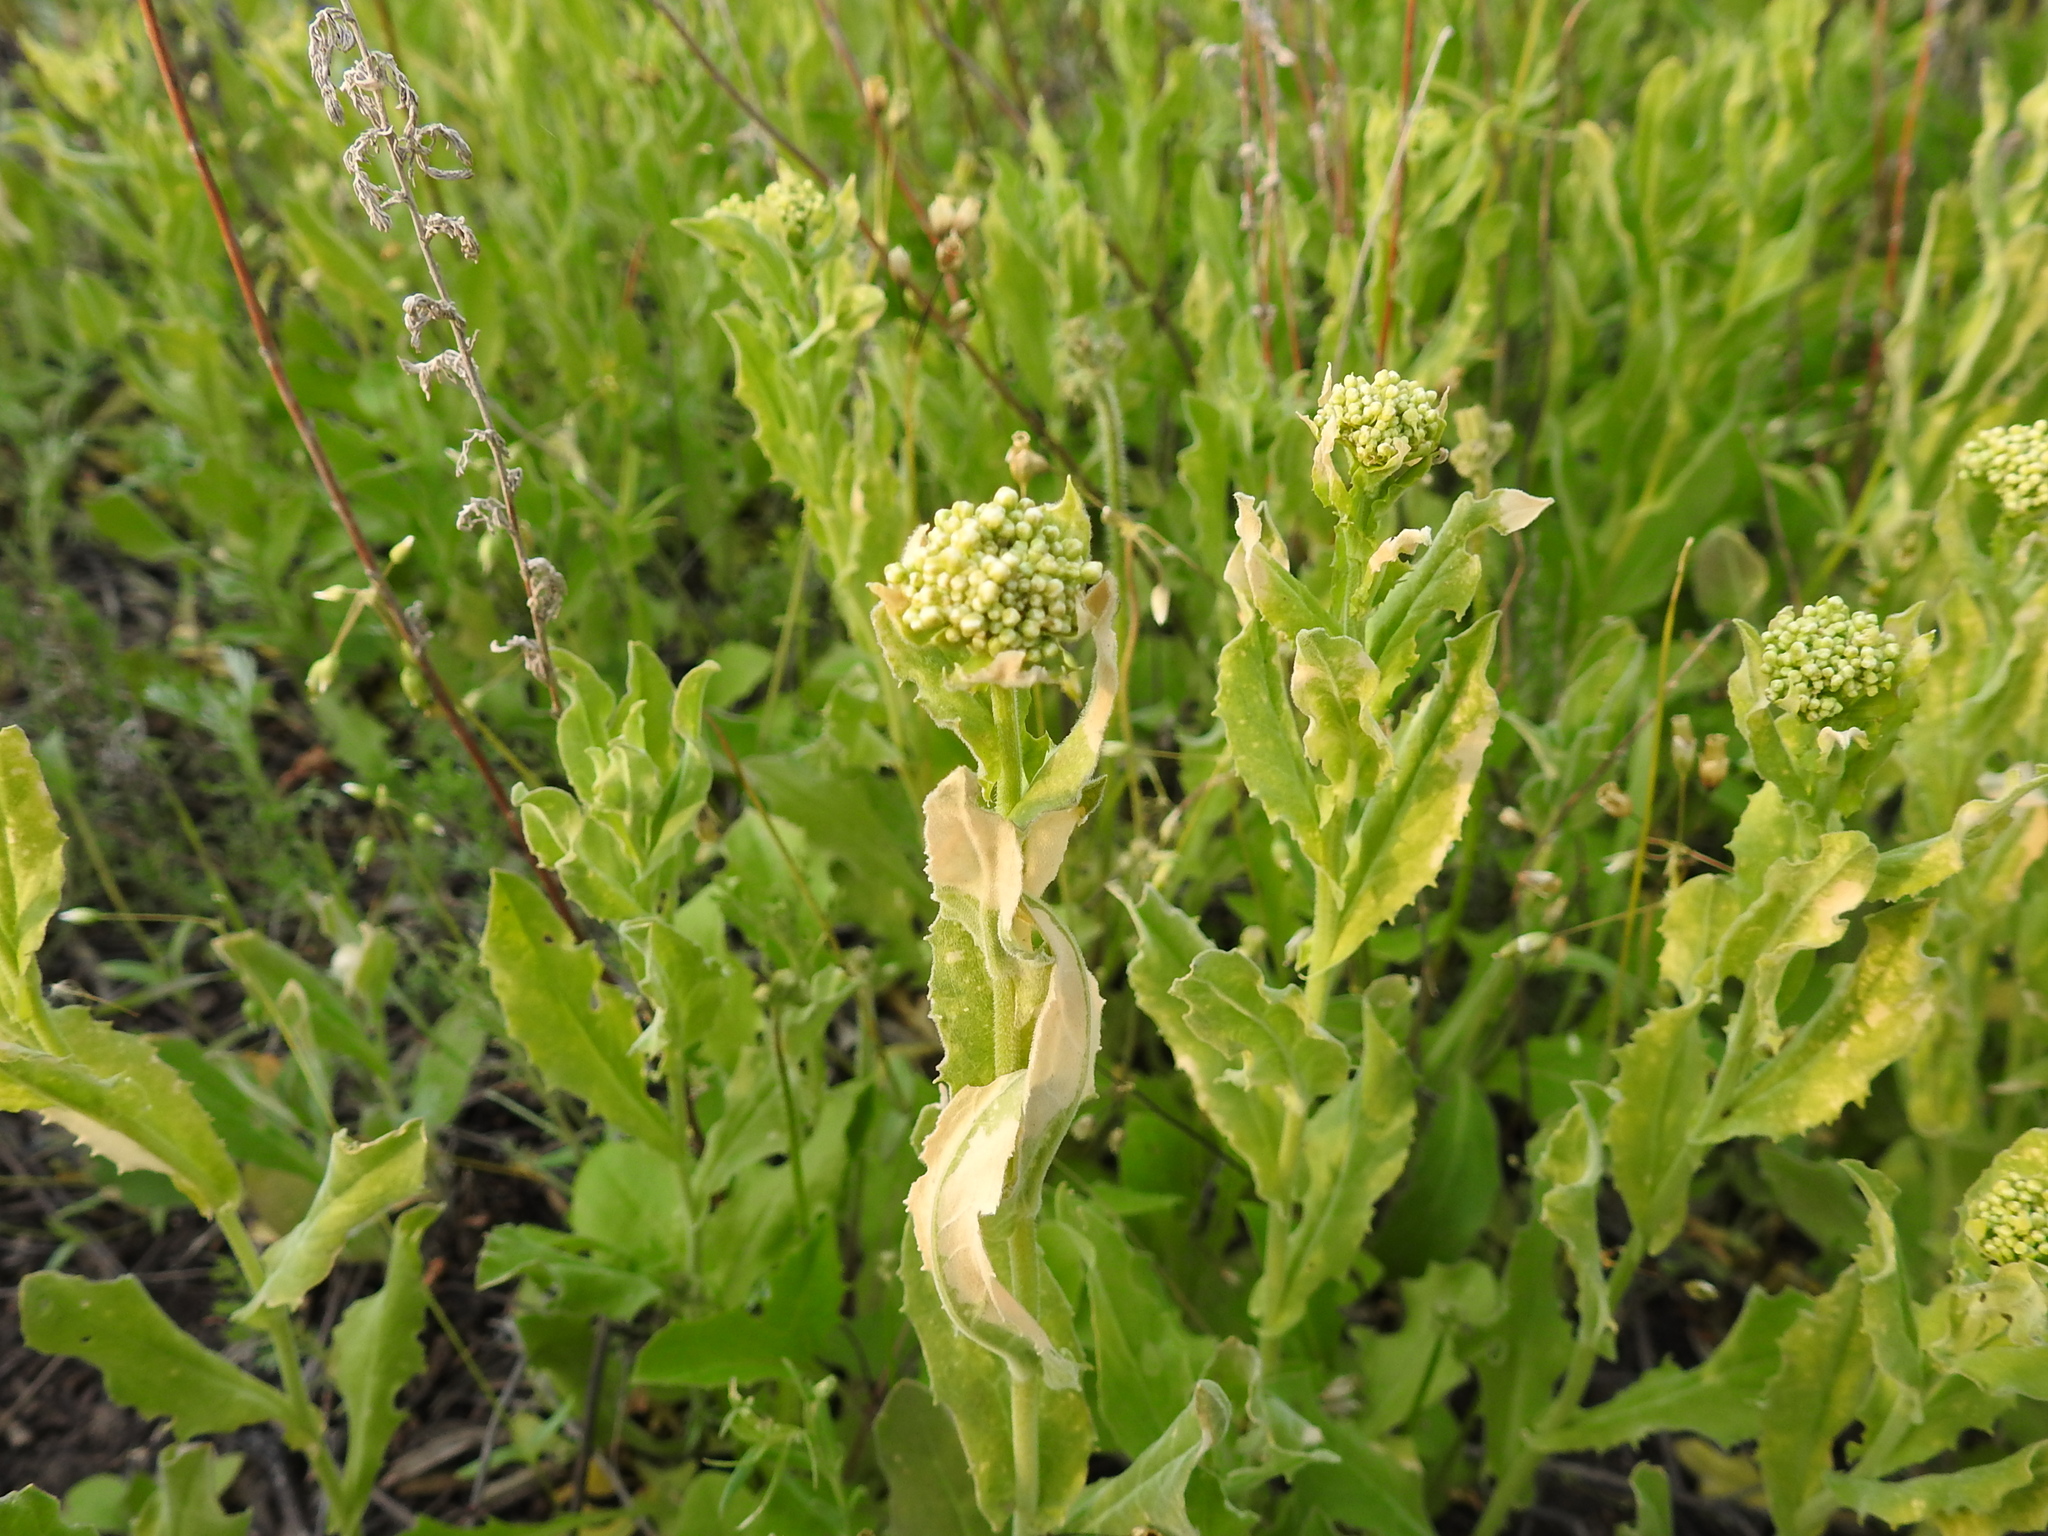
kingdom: Plantae
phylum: Tracheophyta
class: Magnoliopsida
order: Brassicales
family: Brassicaceae
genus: Lepidium
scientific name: Lepidium draba
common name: Hoary cress
